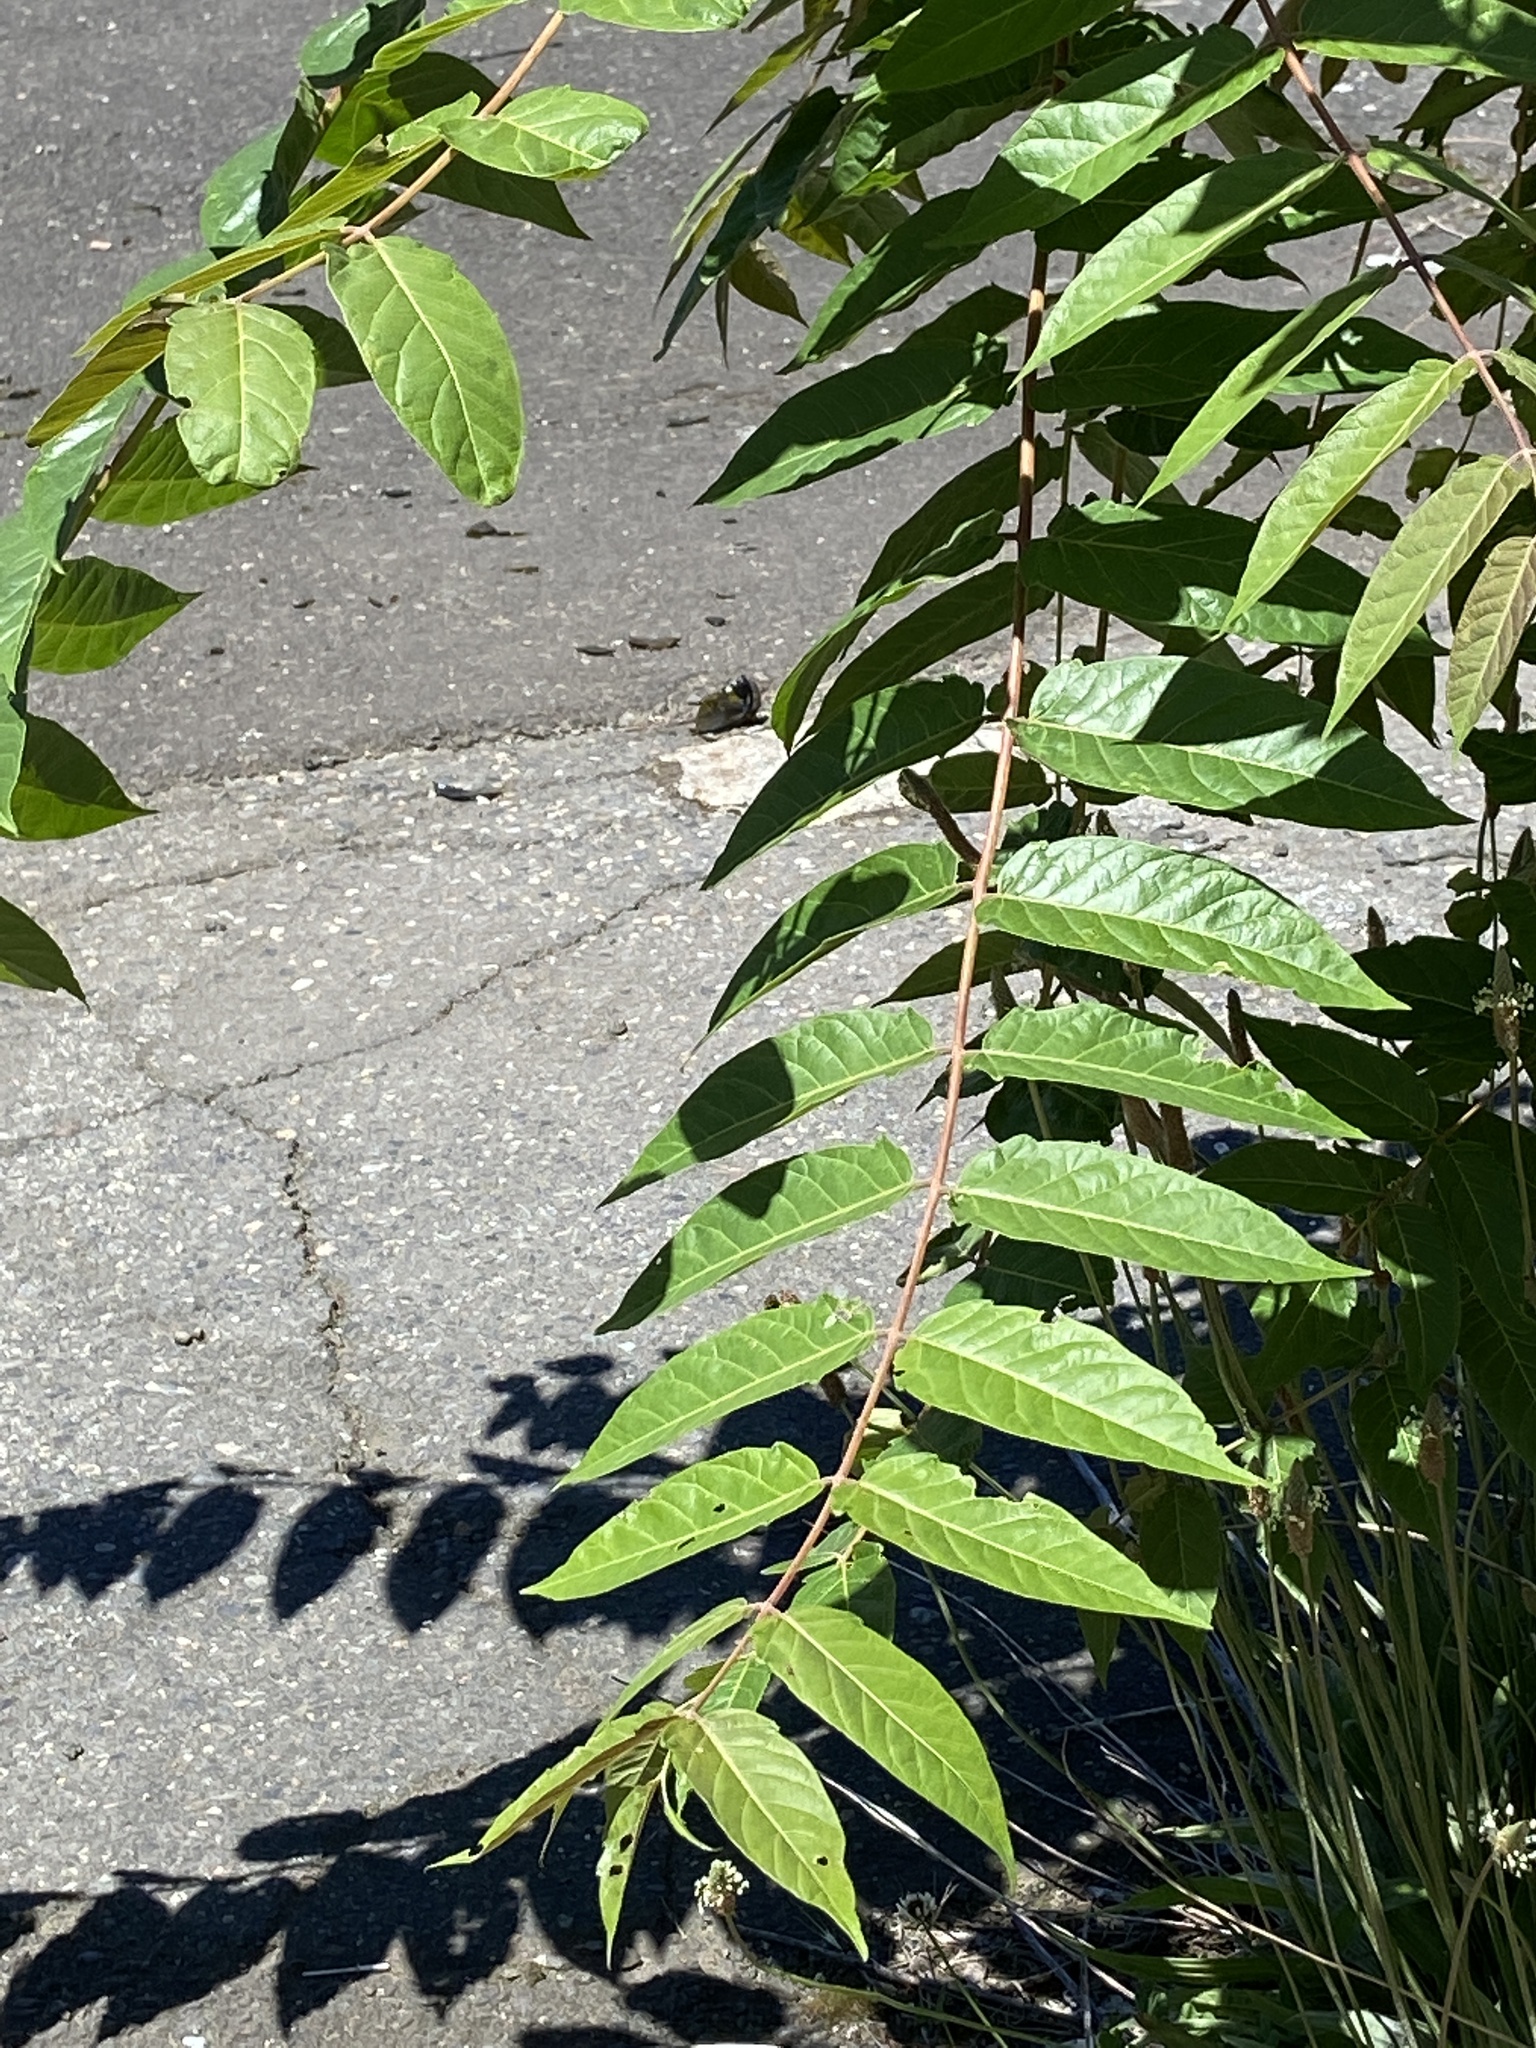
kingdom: Plantae
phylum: Tracheophyta
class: Magnoliopsida
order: Sapindales
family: Simaroubaceae
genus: Ailanthus
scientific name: Ailanthus altissima
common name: Tree-of-heaven
